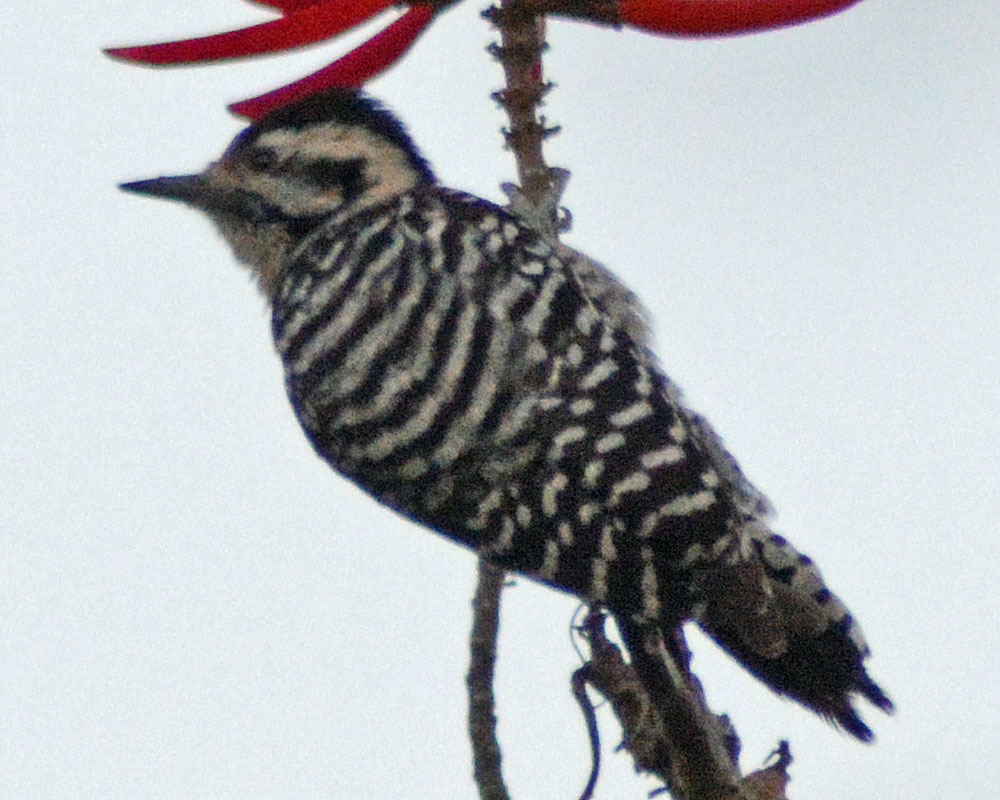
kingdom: Animalia
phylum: Chordata
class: Aves
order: Piciformes
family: Picidae
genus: Dryobates
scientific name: Dryobates scalaris
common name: Ladder-backed woodpecker
